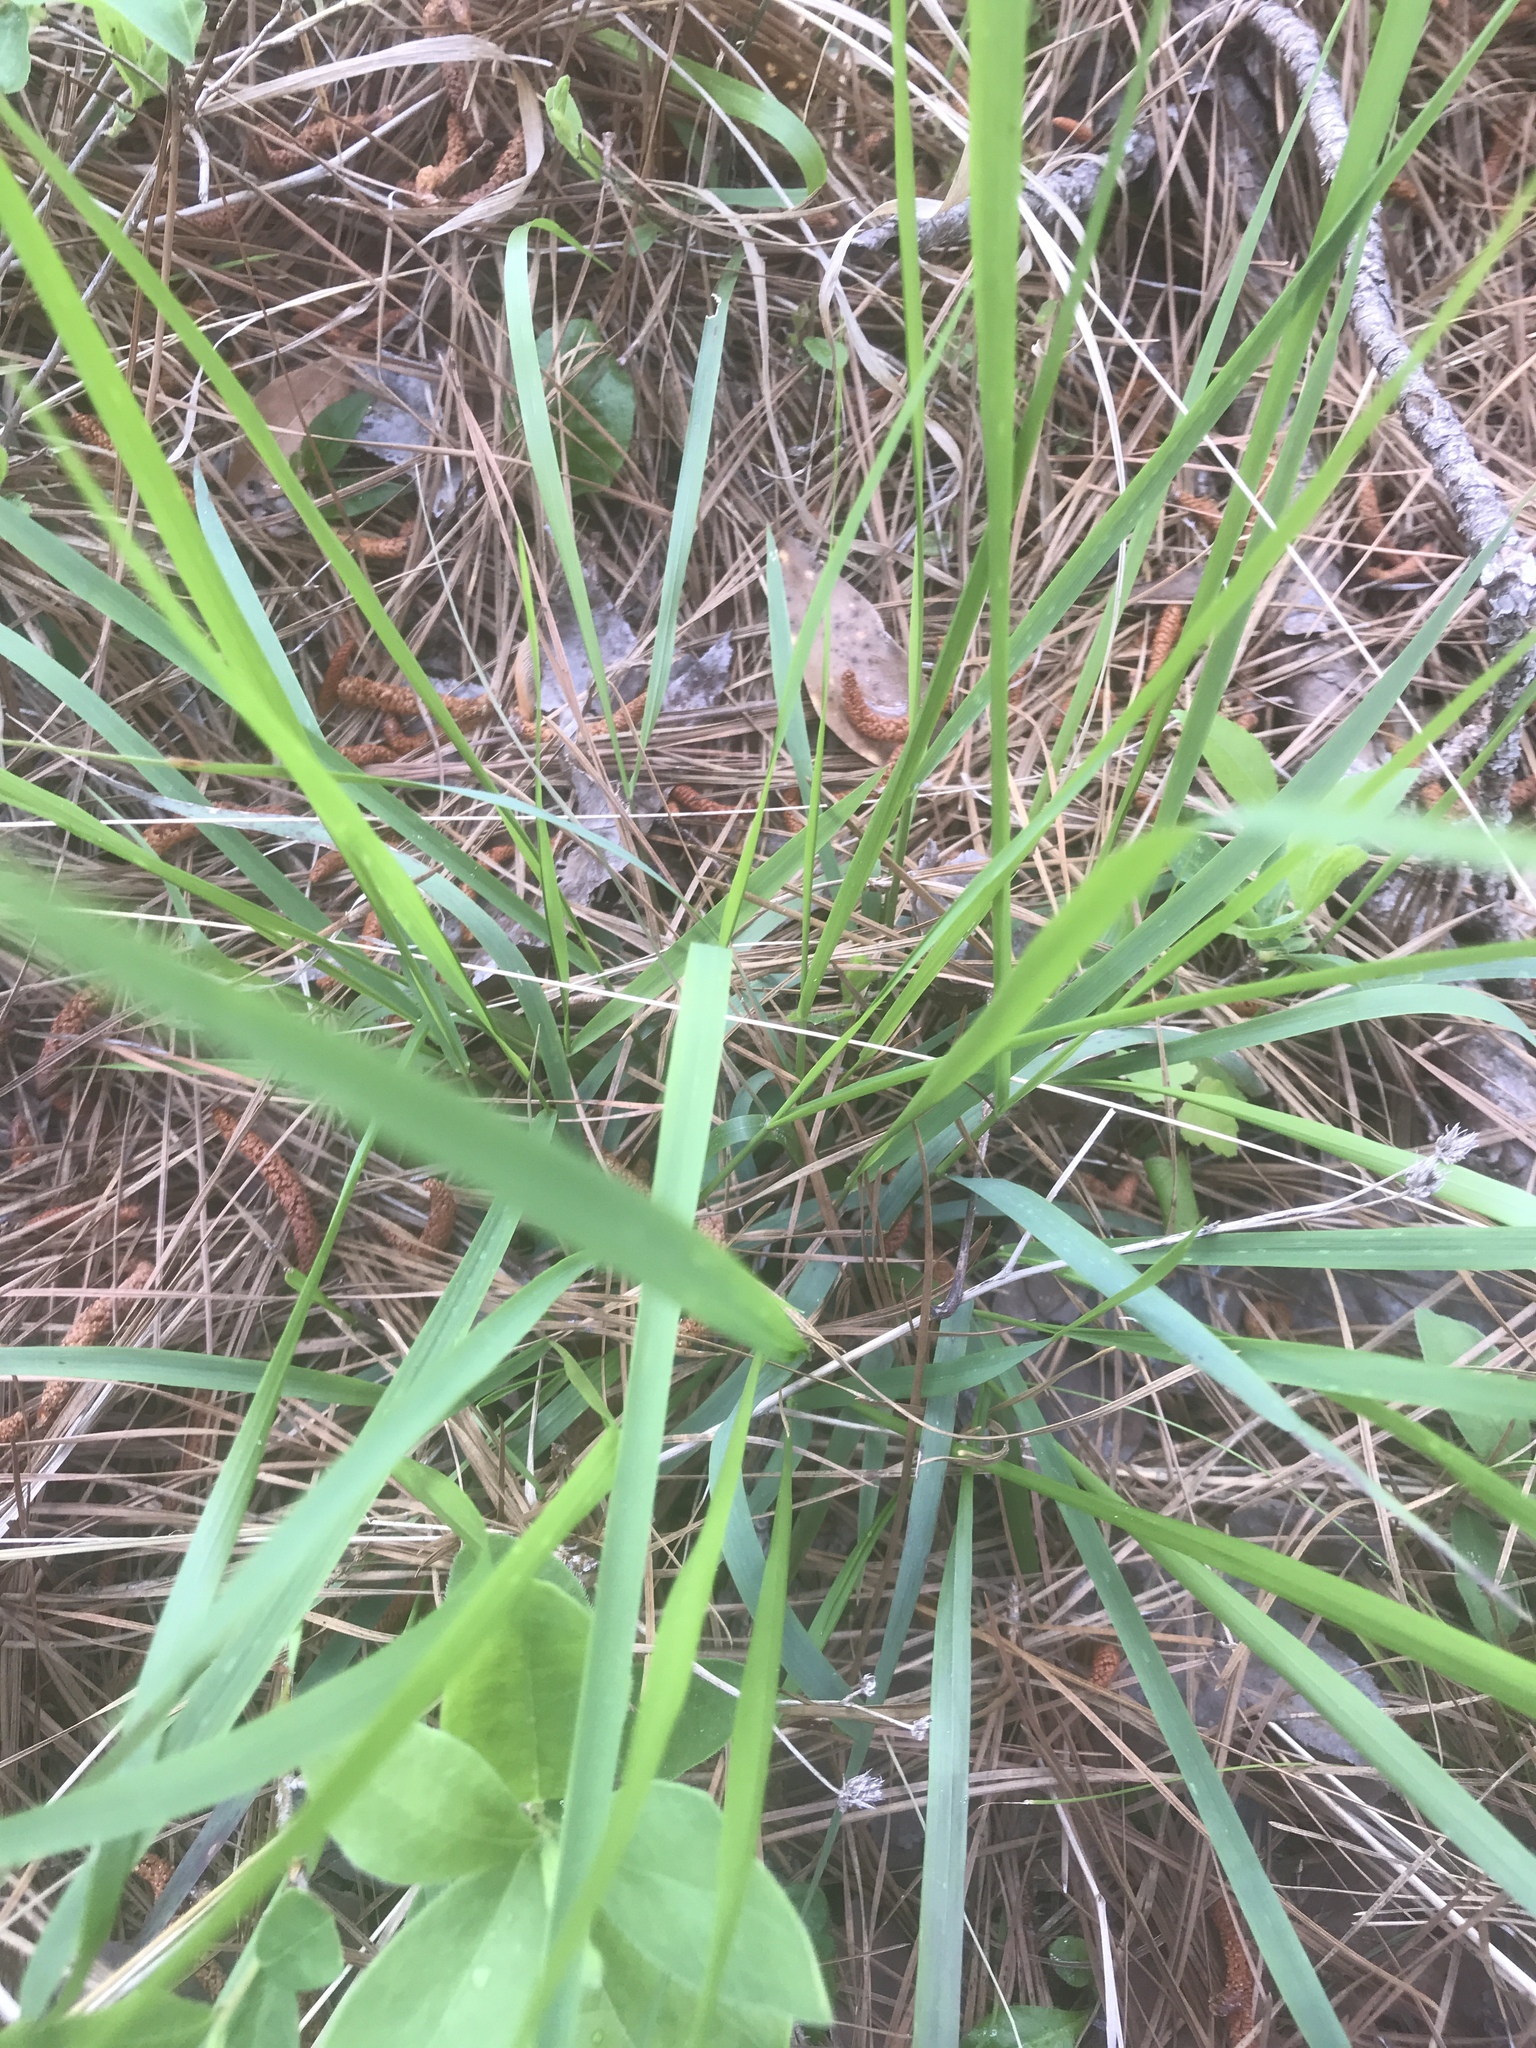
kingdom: Plantae
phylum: Tracheophyta
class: Liliopsida
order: Poales
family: Poaceae
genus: Chasmanthium
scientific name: Chasmanthium laxum
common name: Slender chasmanthium
